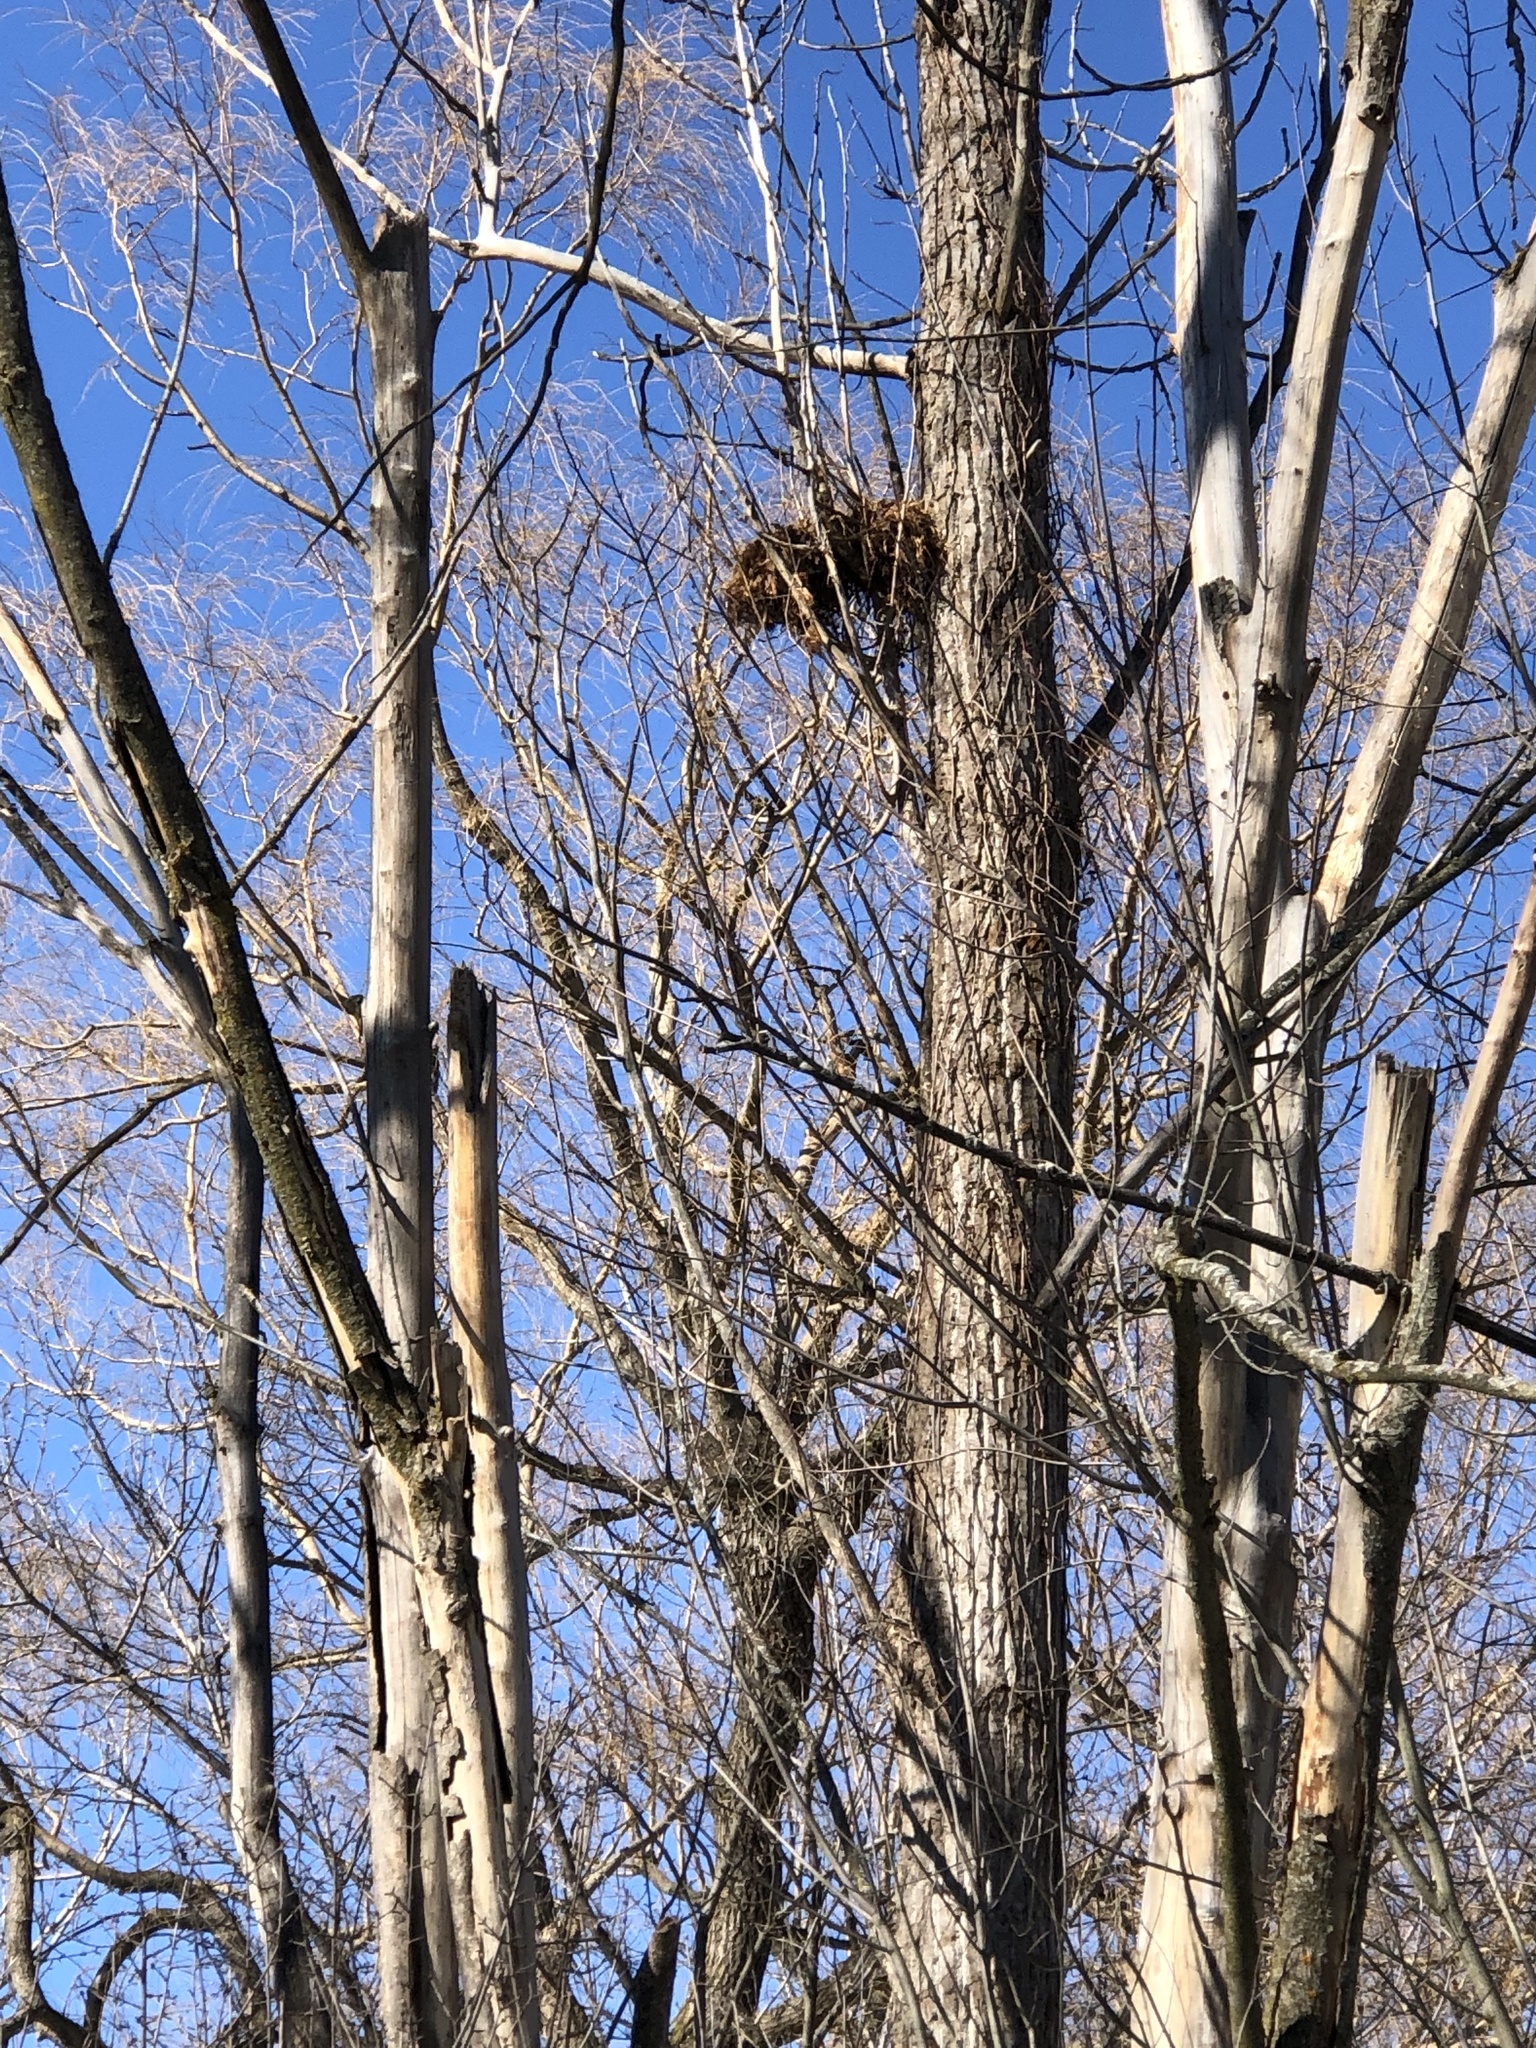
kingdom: Animalia
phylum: Chordata
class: Mammalia
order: Rodentia
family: Sciuridae
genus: Sciurus
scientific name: Sciurus carolinensis
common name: Eastern gray squirrel
